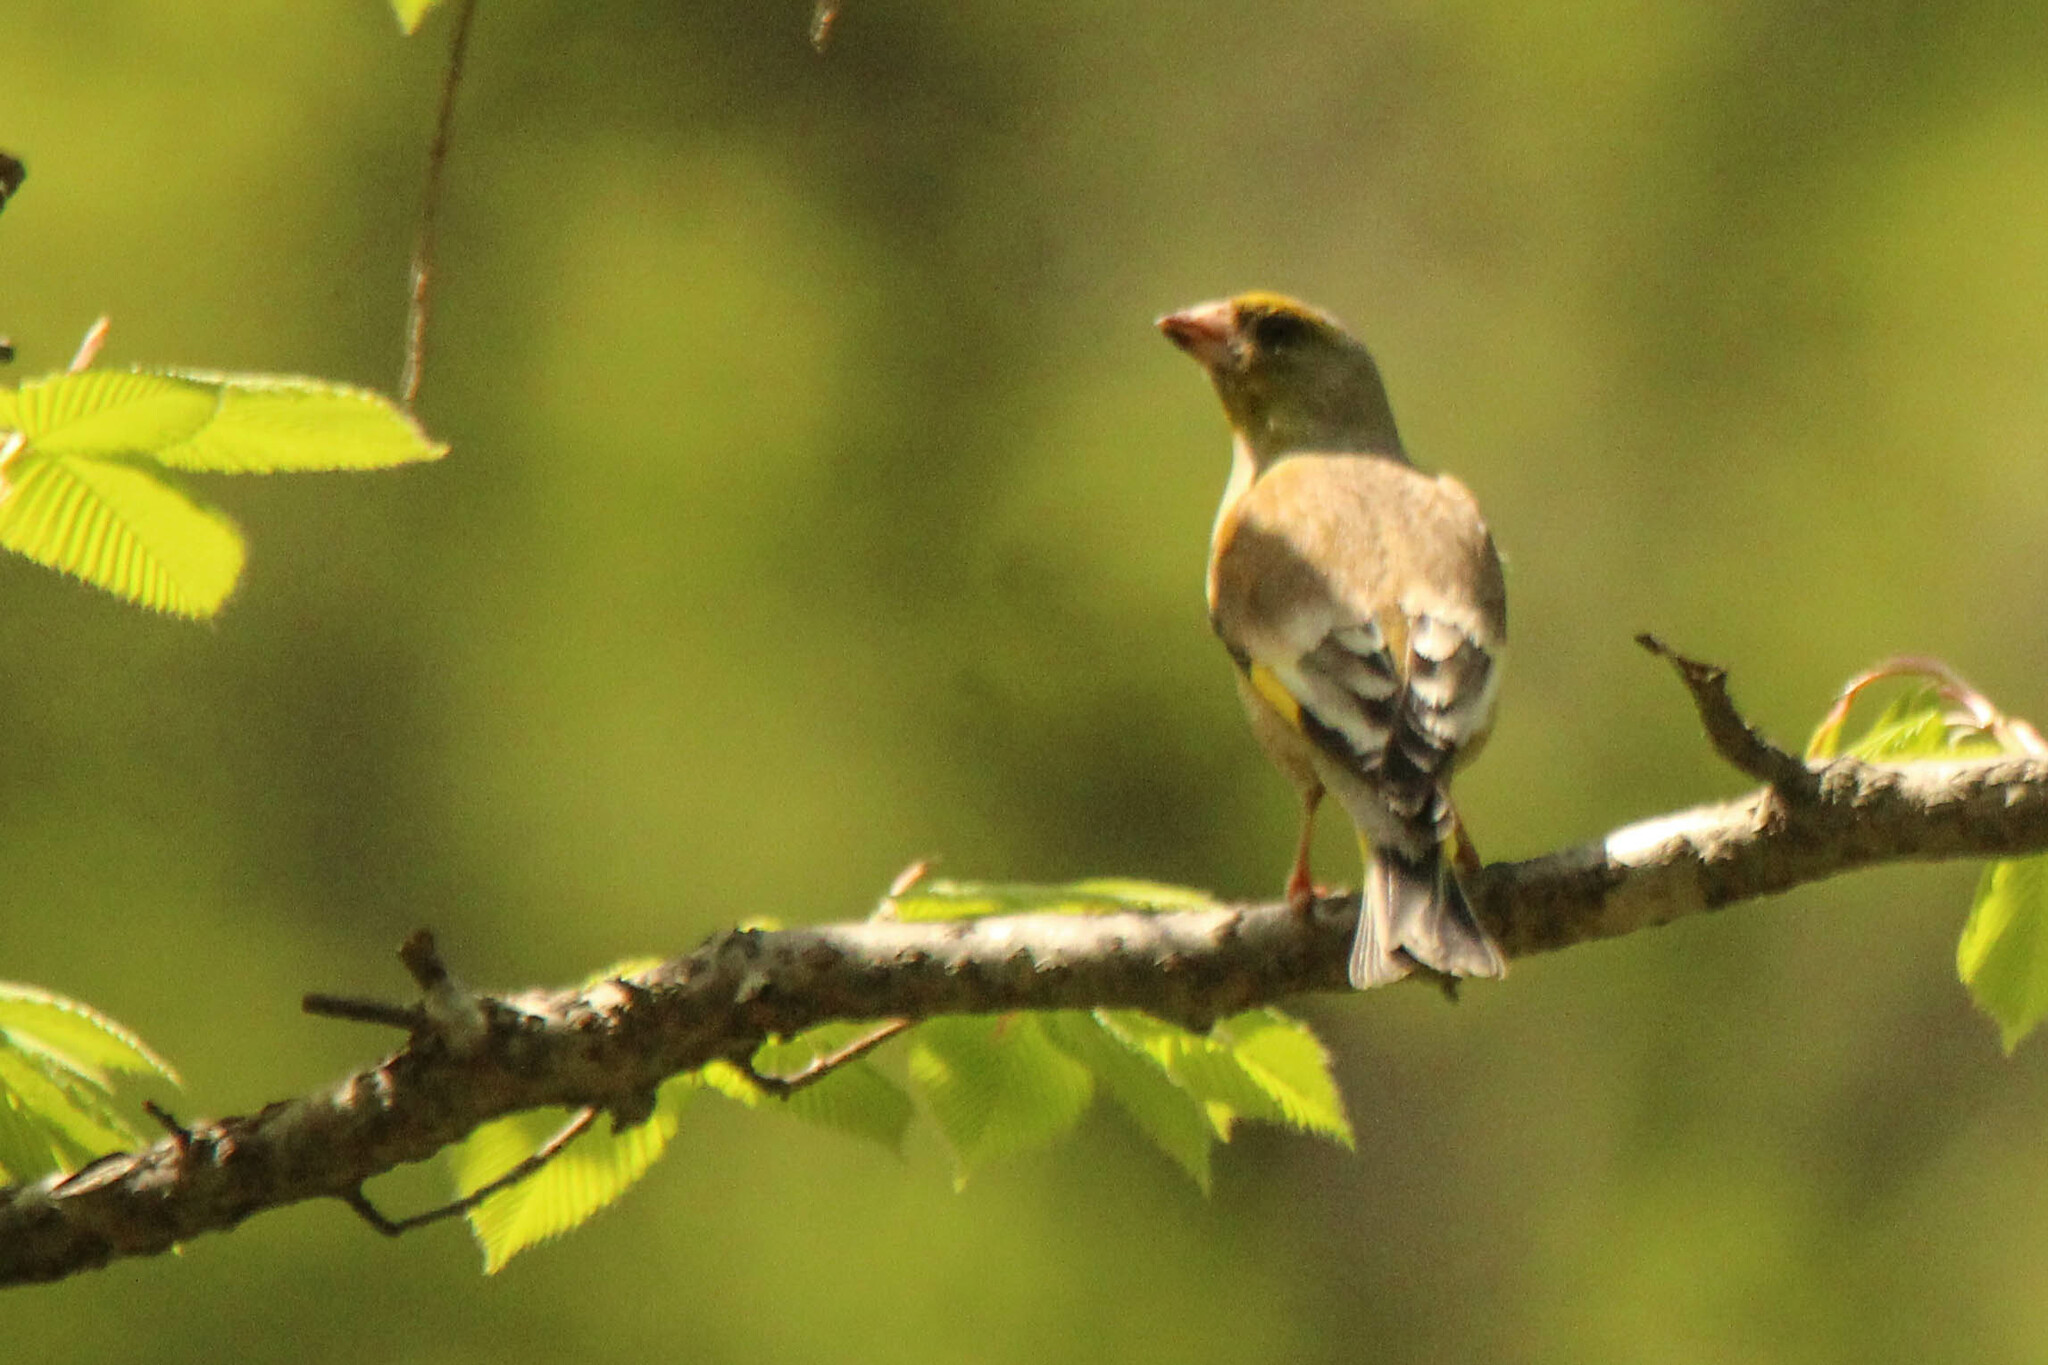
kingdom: Plantae
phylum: Tracheophyta
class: Liliopsida
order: Poales
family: Poaceae
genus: Chloris
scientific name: Chloris sinica
